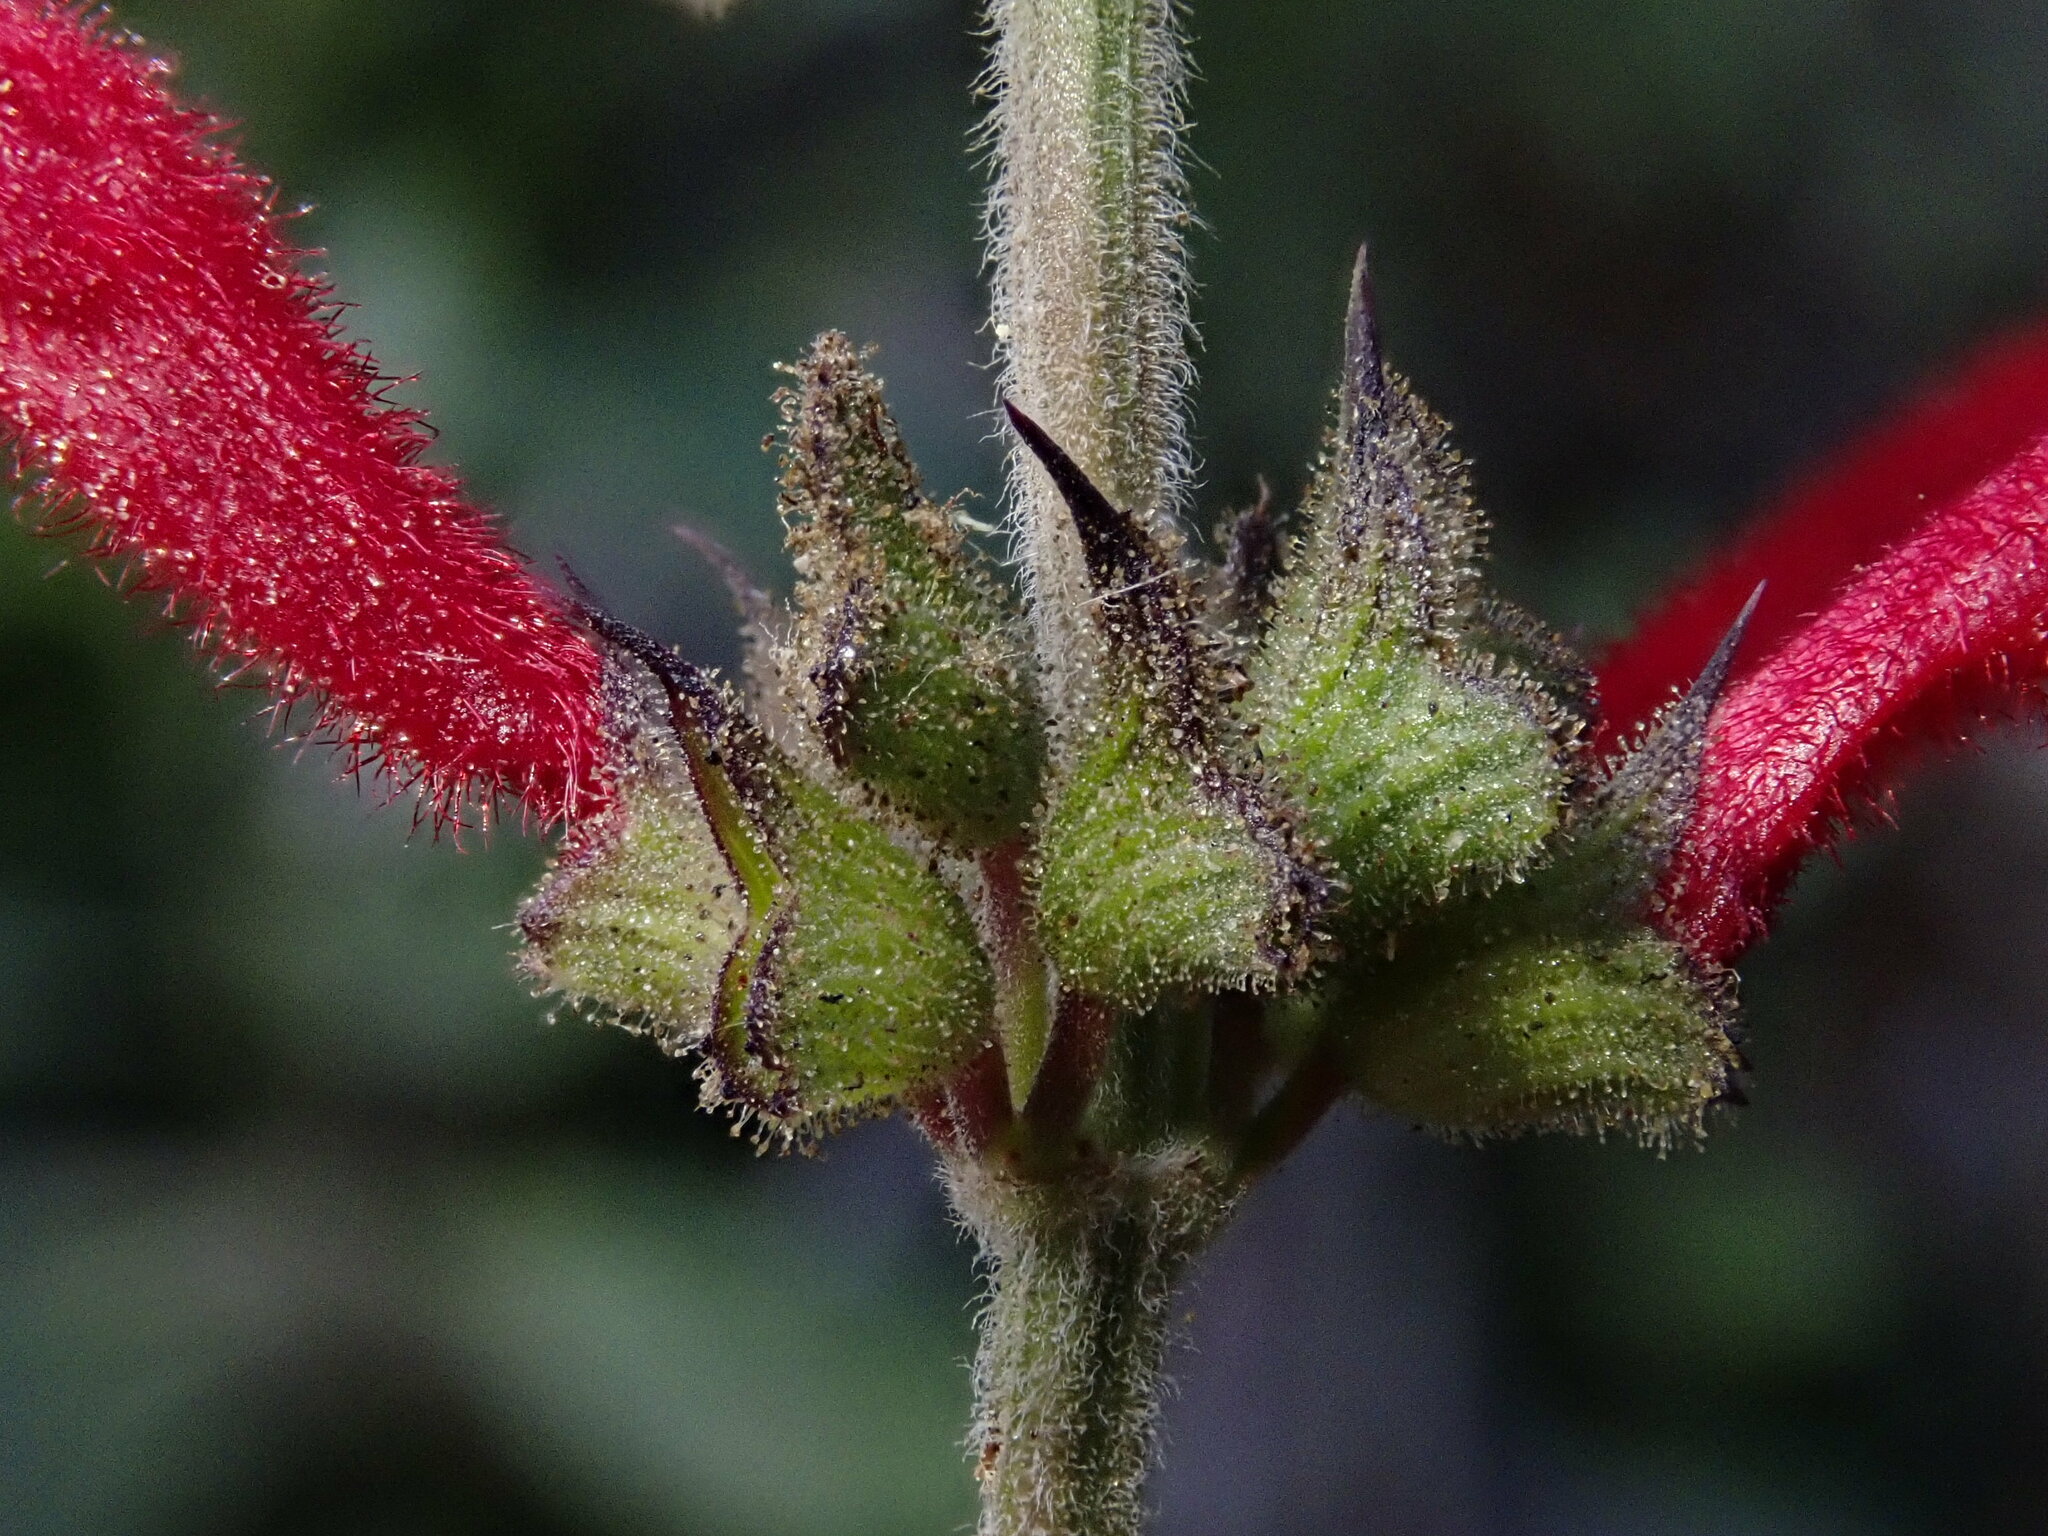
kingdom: Plantae
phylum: Tracheophyta
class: Magnoliopsida
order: Lamiales
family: Lamiaceae
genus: Salvia
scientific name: Salvia cinnabarina
